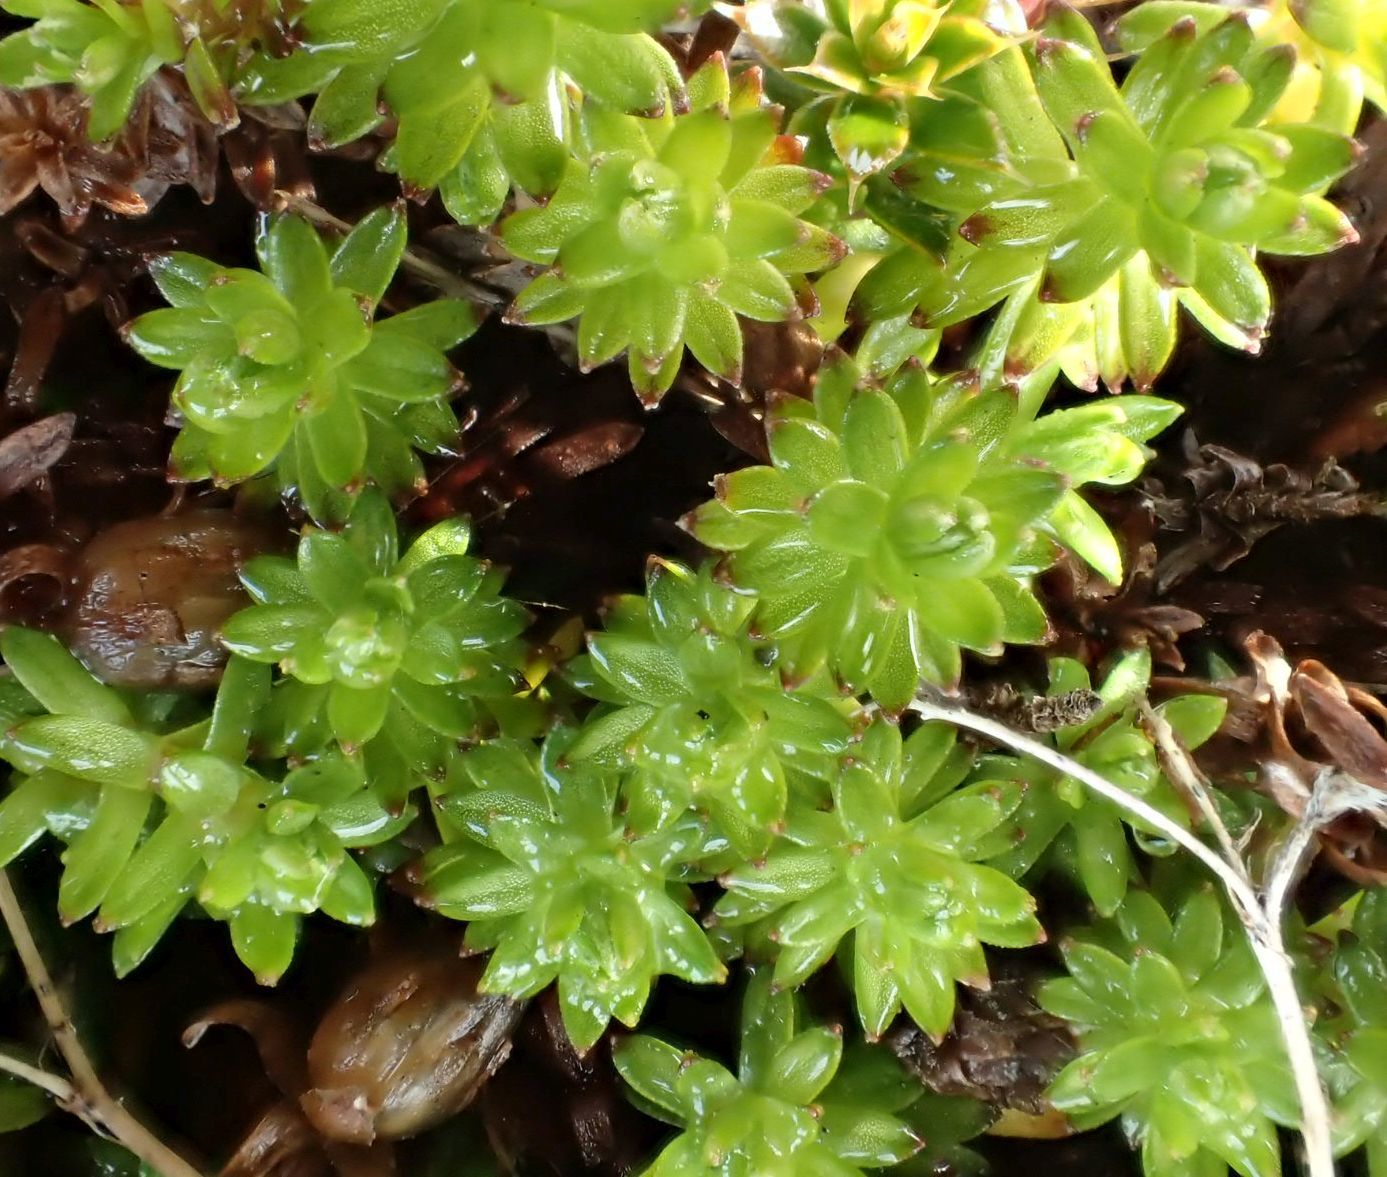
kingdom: Plantae
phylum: Tracheophyta
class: Magnoliopsida
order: Asterales
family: Asteraceae
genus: Raoulia
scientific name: Raoulia glabra
